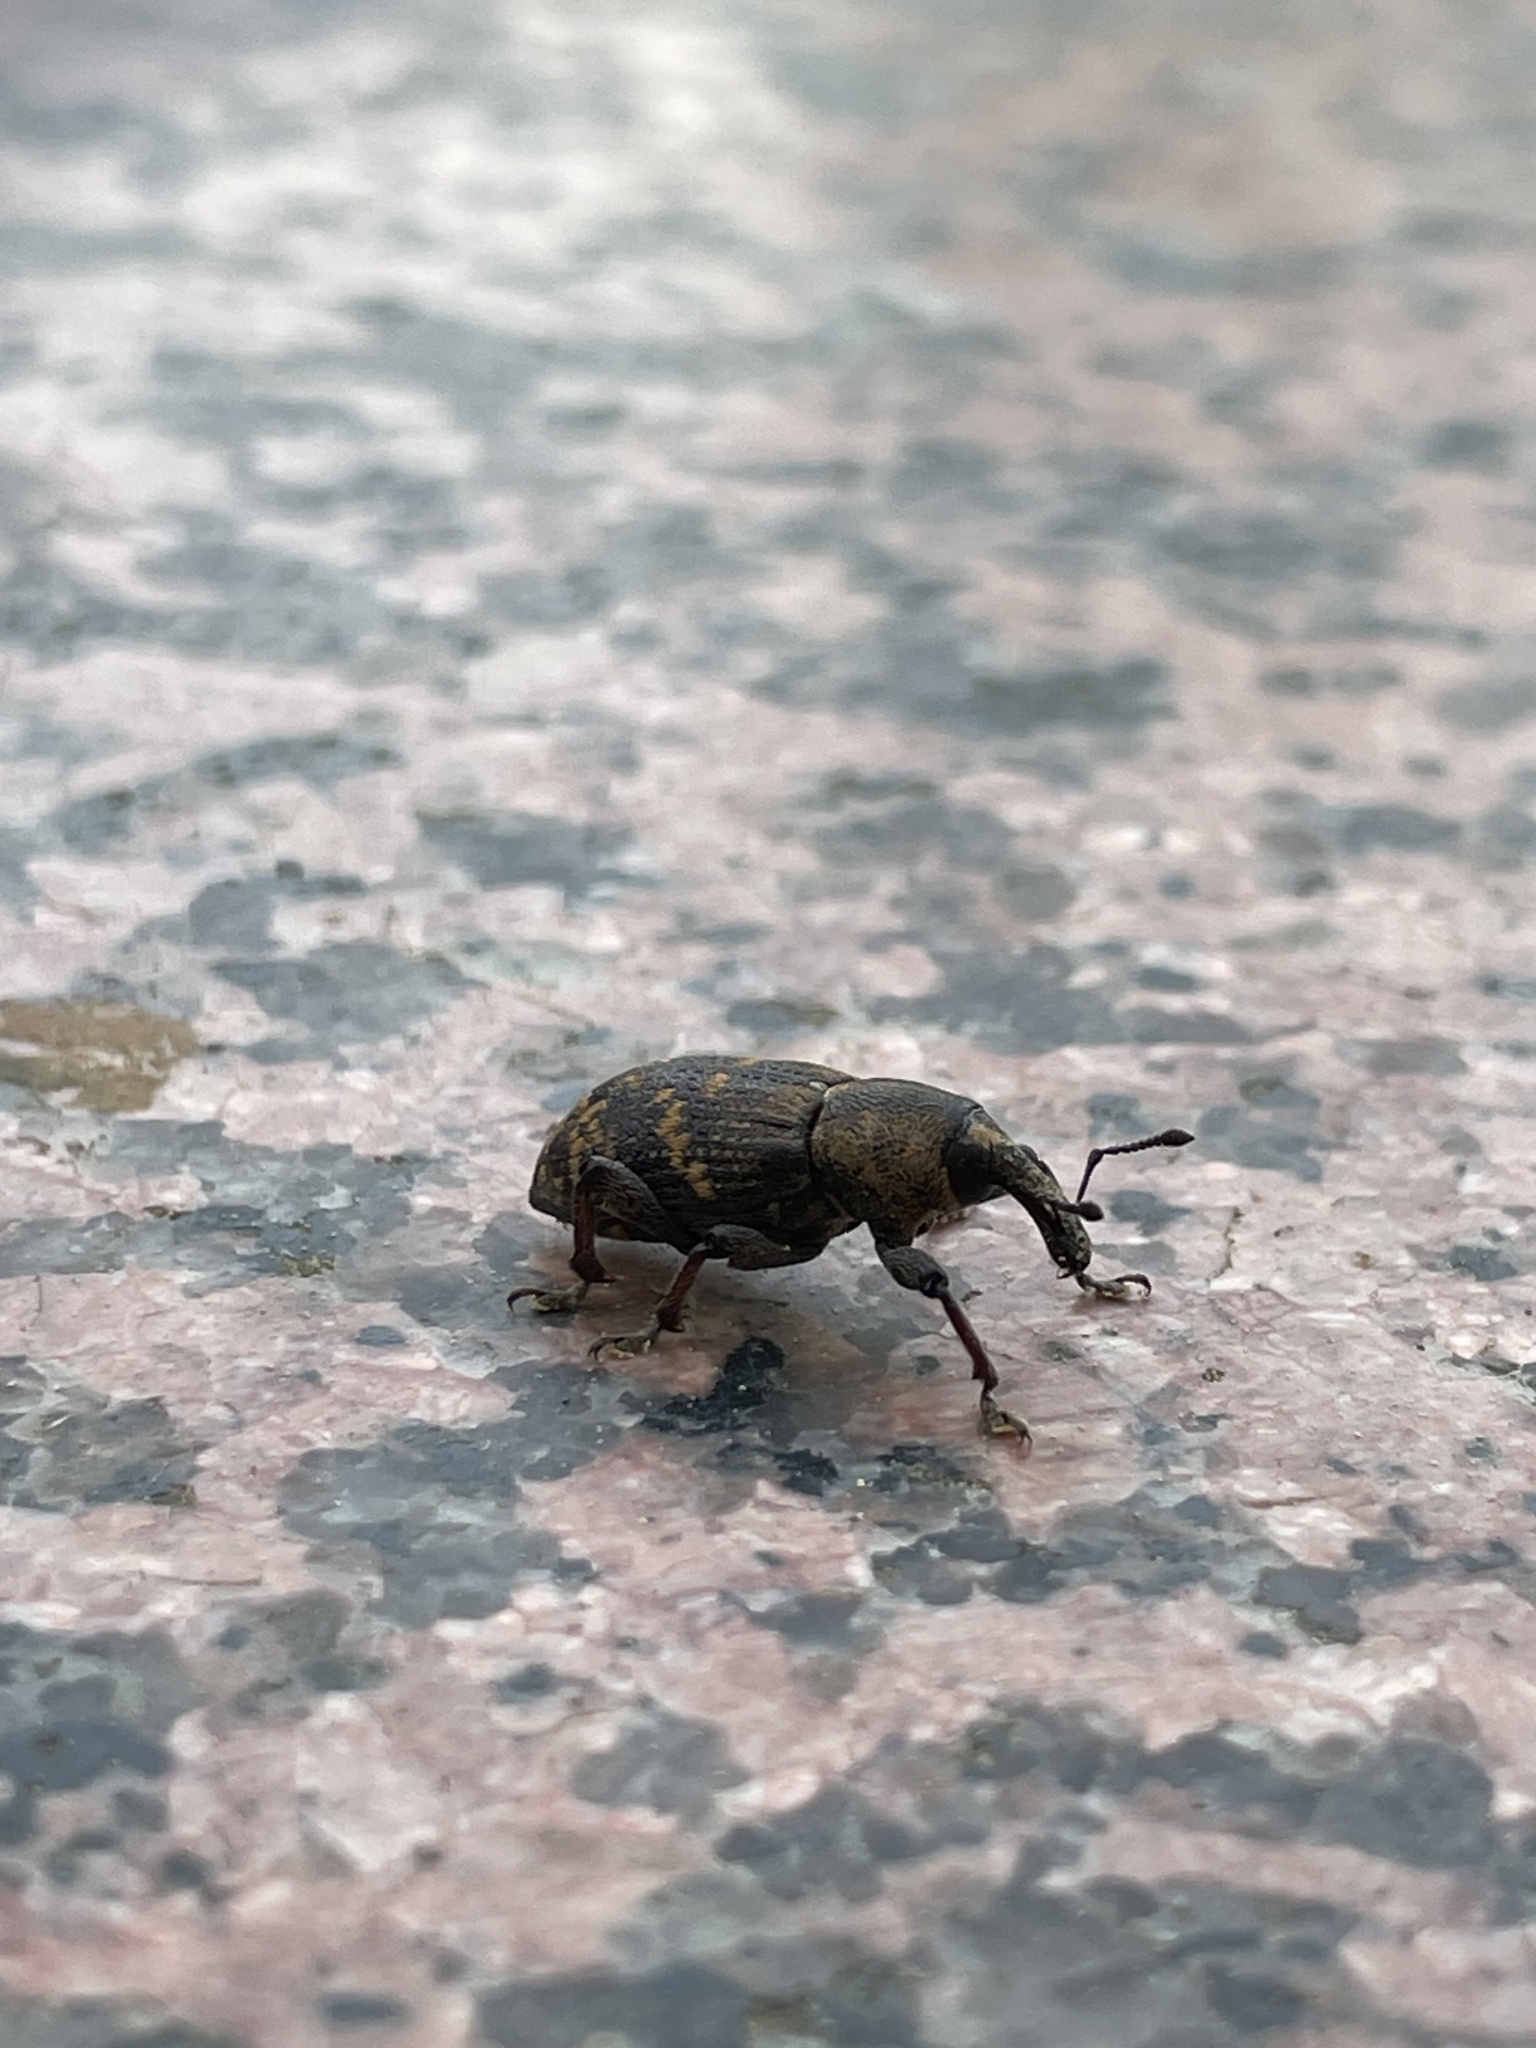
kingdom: Animalia
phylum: Arthropoda
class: Insecta
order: Coleoptera
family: Curculionidae
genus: Hylobius
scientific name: Hylobius abietis
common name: Large pine weevil
